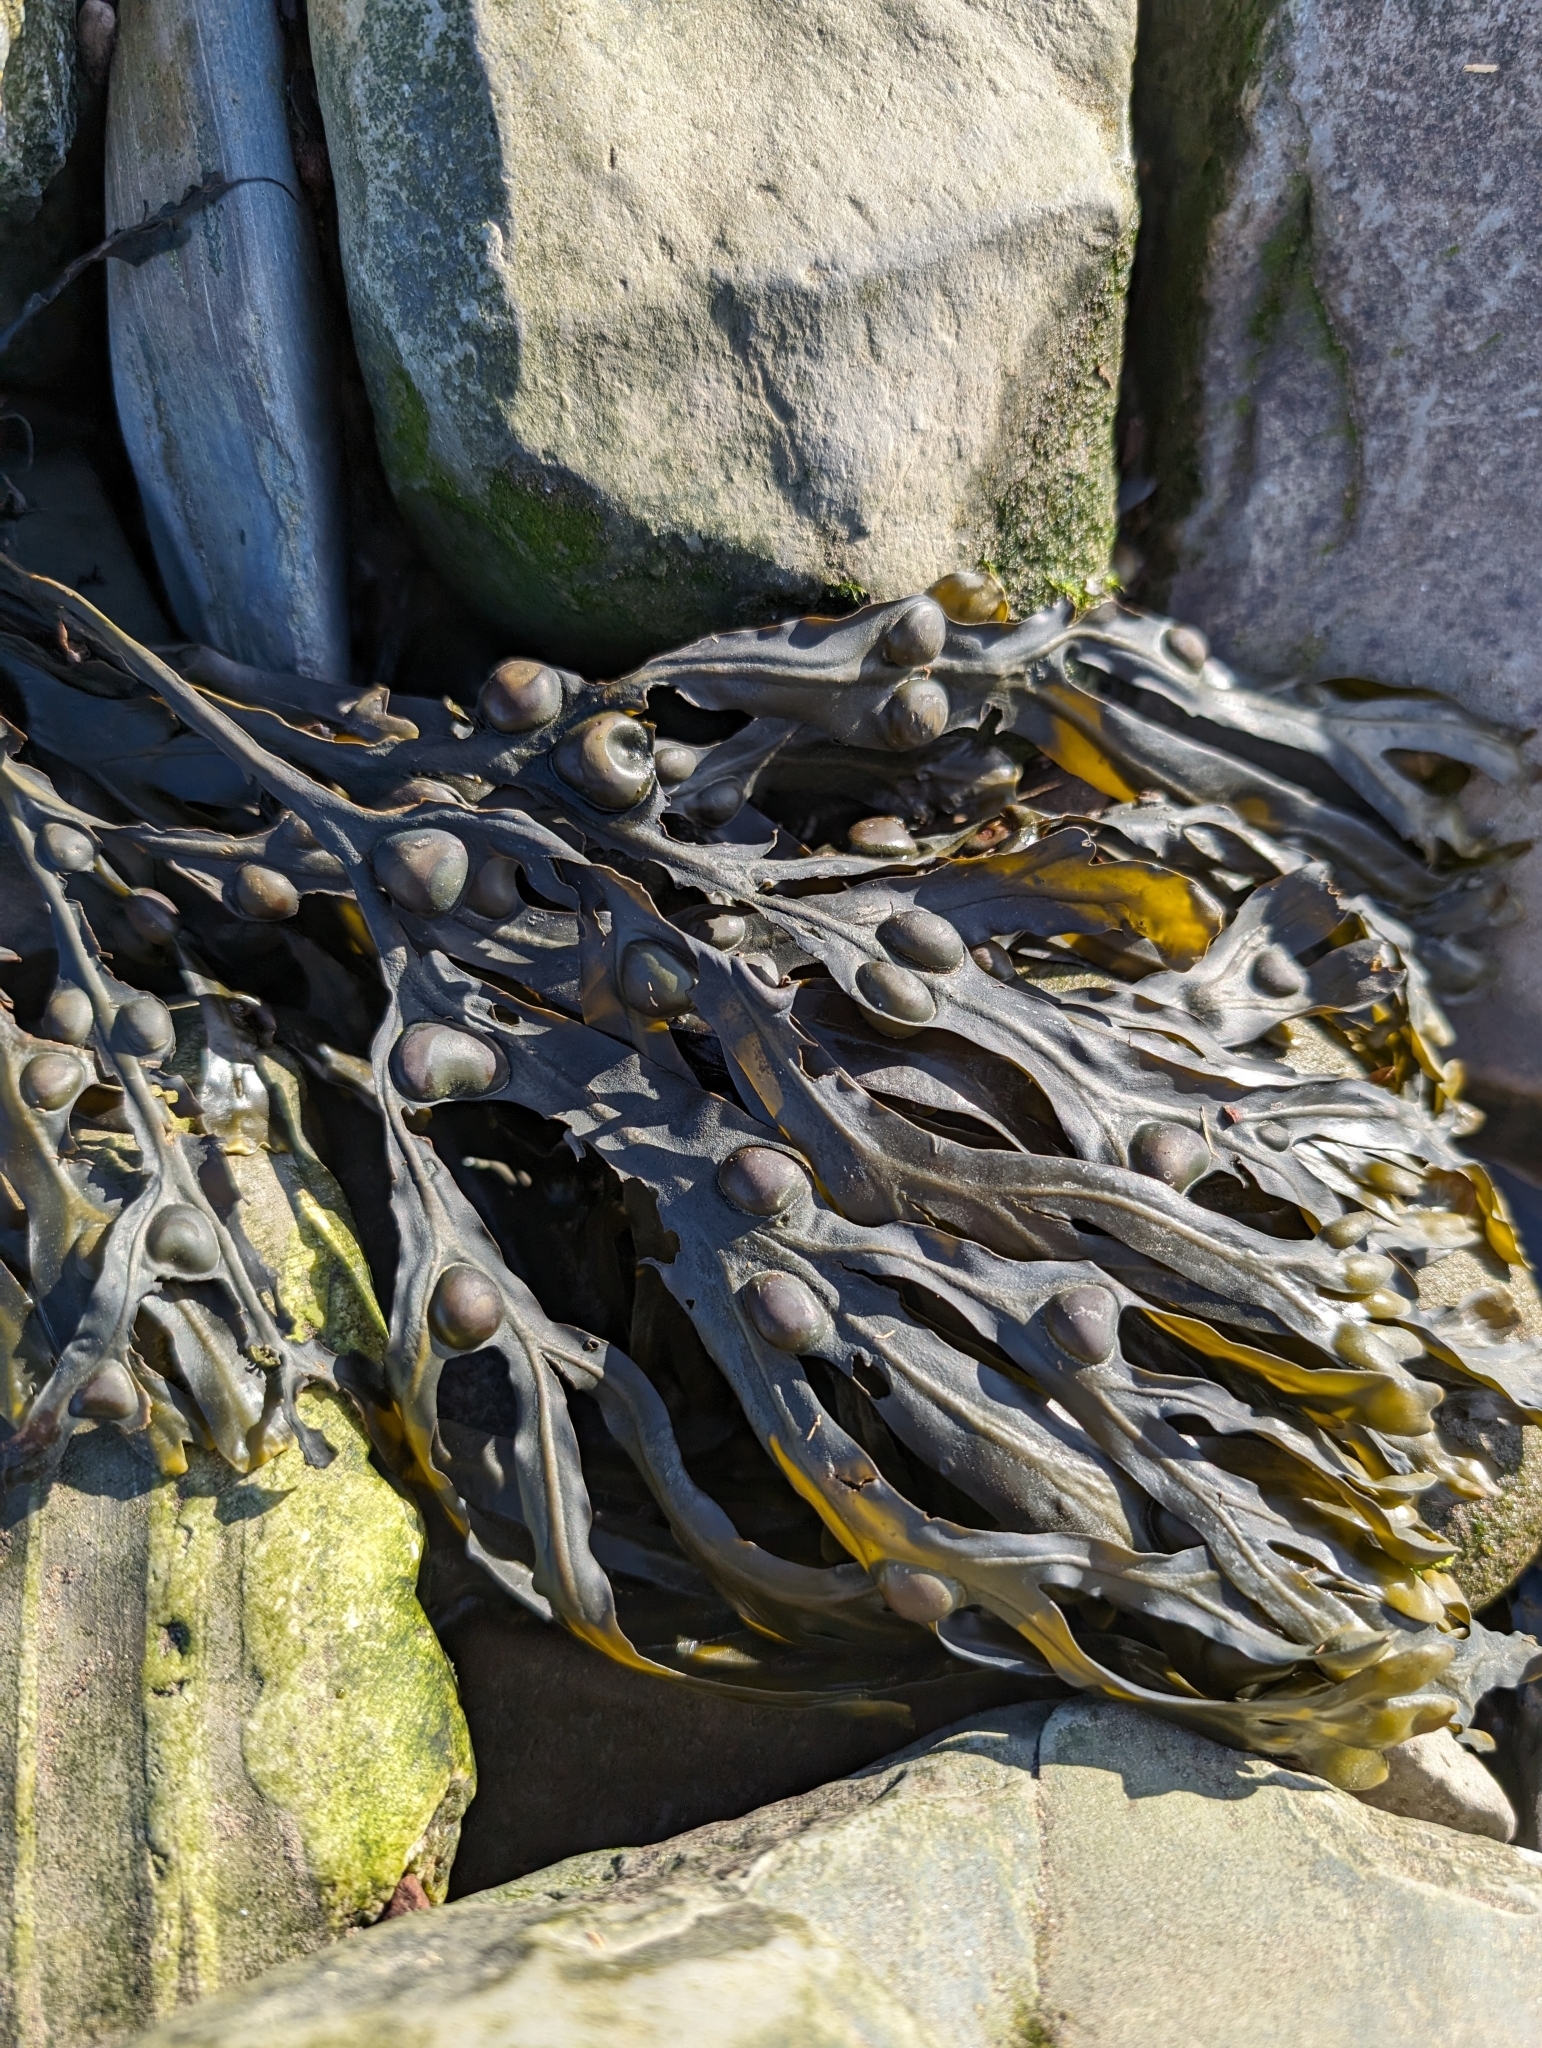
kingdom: Chromista
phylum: Ochrophyta
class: Phaeophyceae
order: Fucales
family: Fucaceae
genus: Fucus
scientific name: Fucus vesiculosus
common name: Bladder wrack
